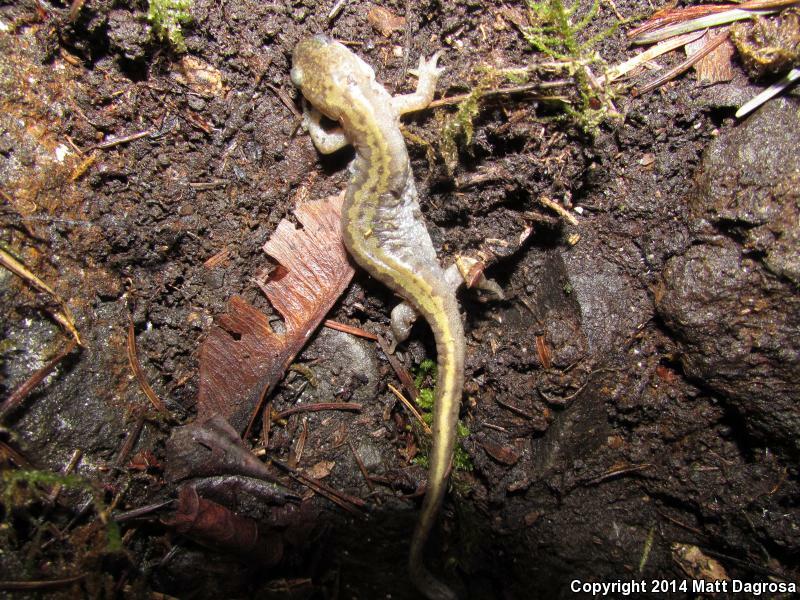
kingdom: Animalia
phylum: Chordata
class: Amphibia
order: Caudata
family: Ambystomatidae
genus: Ambystoma
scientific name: Ambystoma macrodactylum
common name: Long-toed salamander
